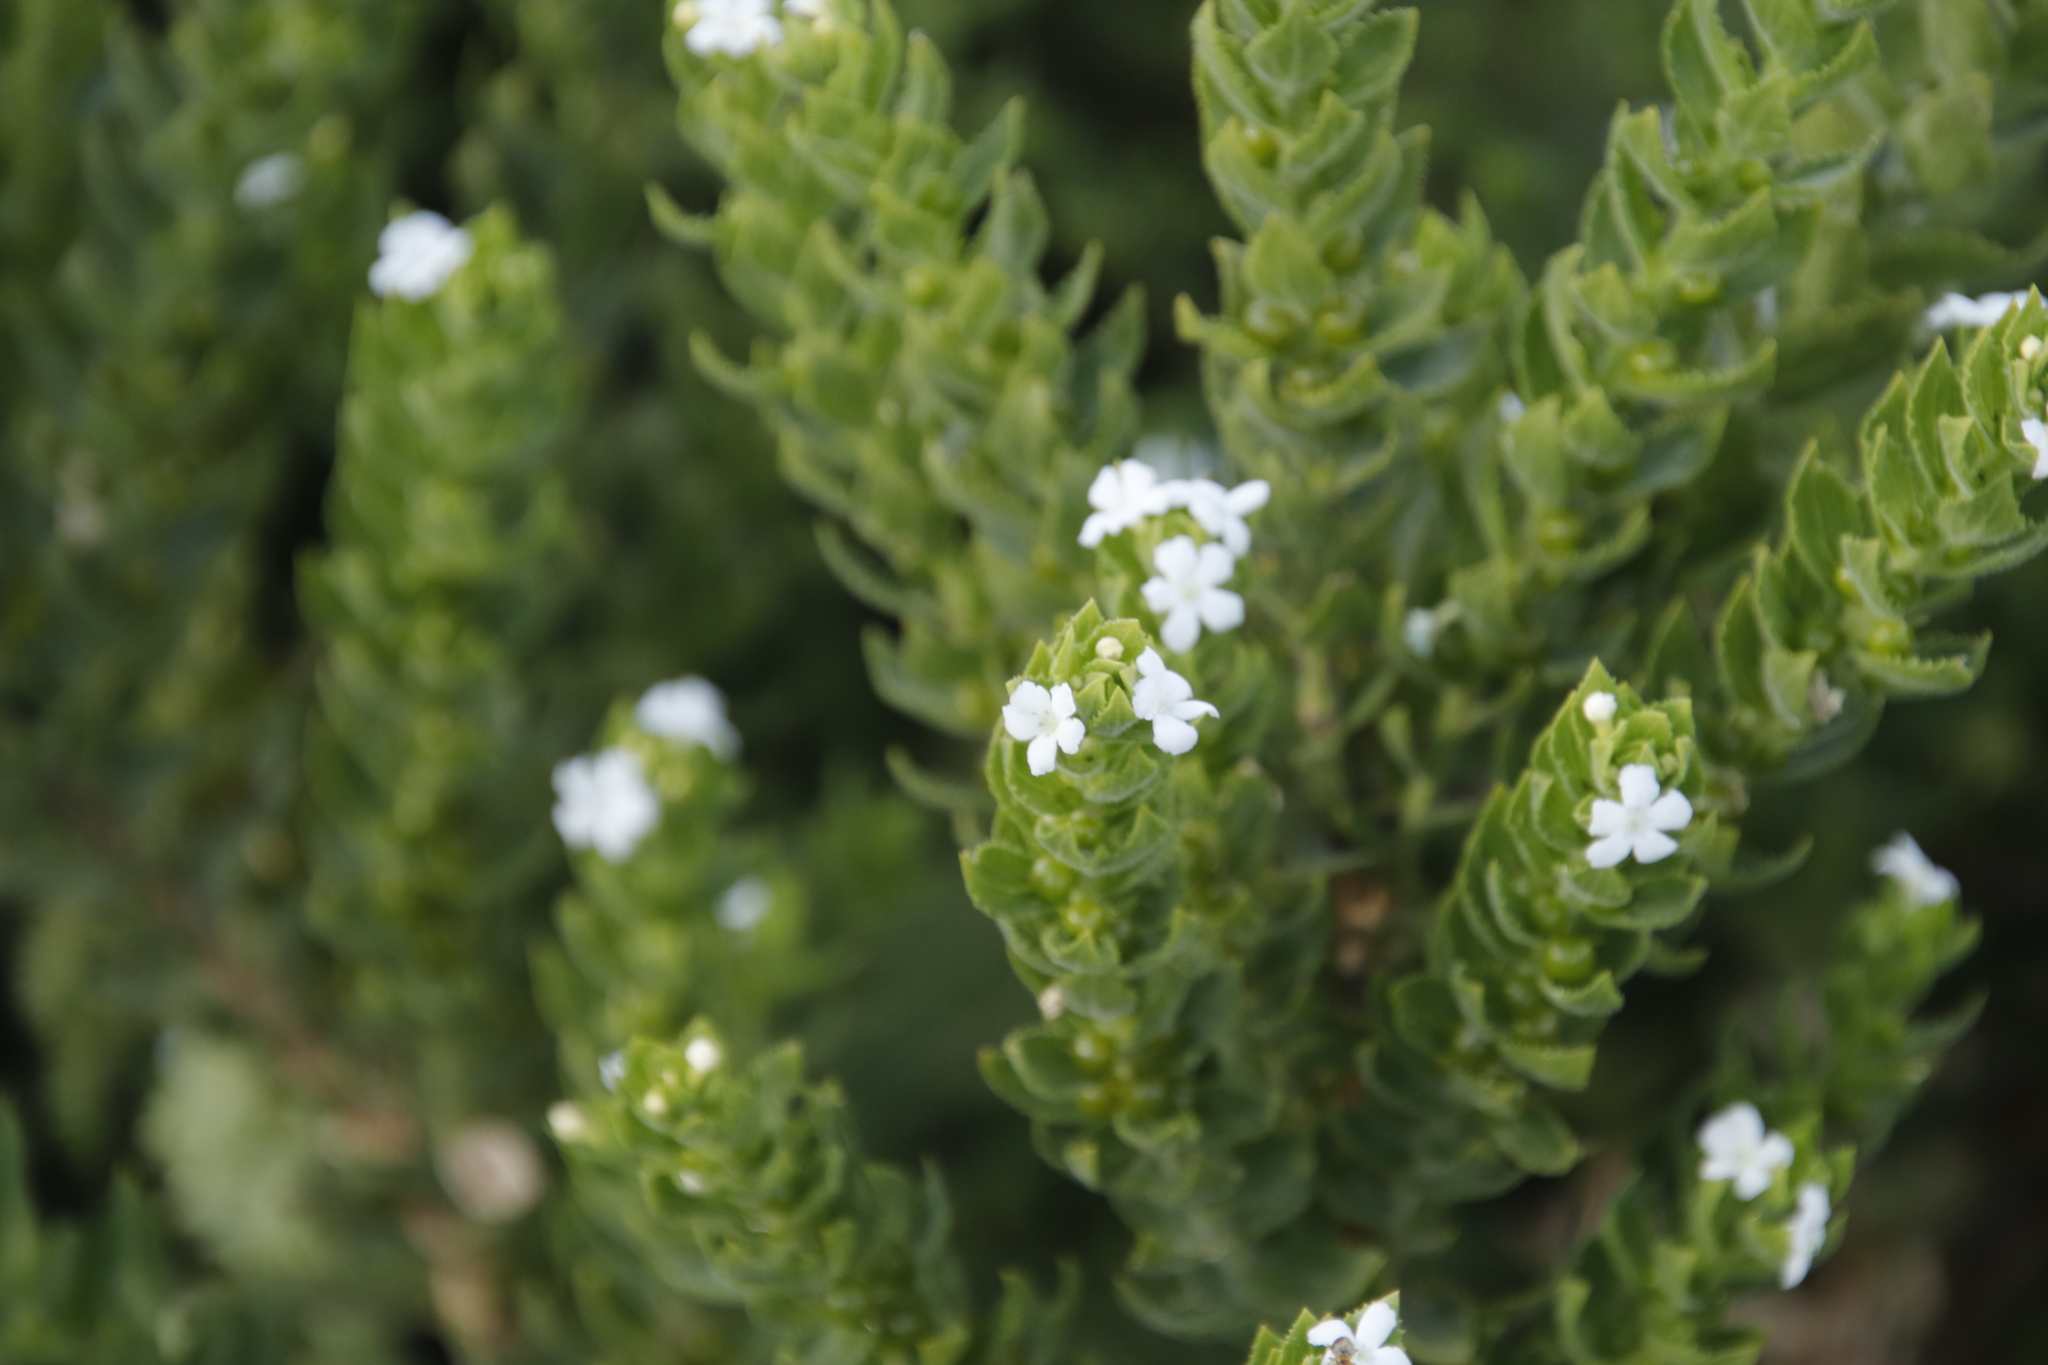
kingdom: Plantae
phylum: Tracheophyta
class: Magnoliopsida
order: Lamiales
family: Scrophulariaceae
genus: Oftia
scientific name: Oftia africana
